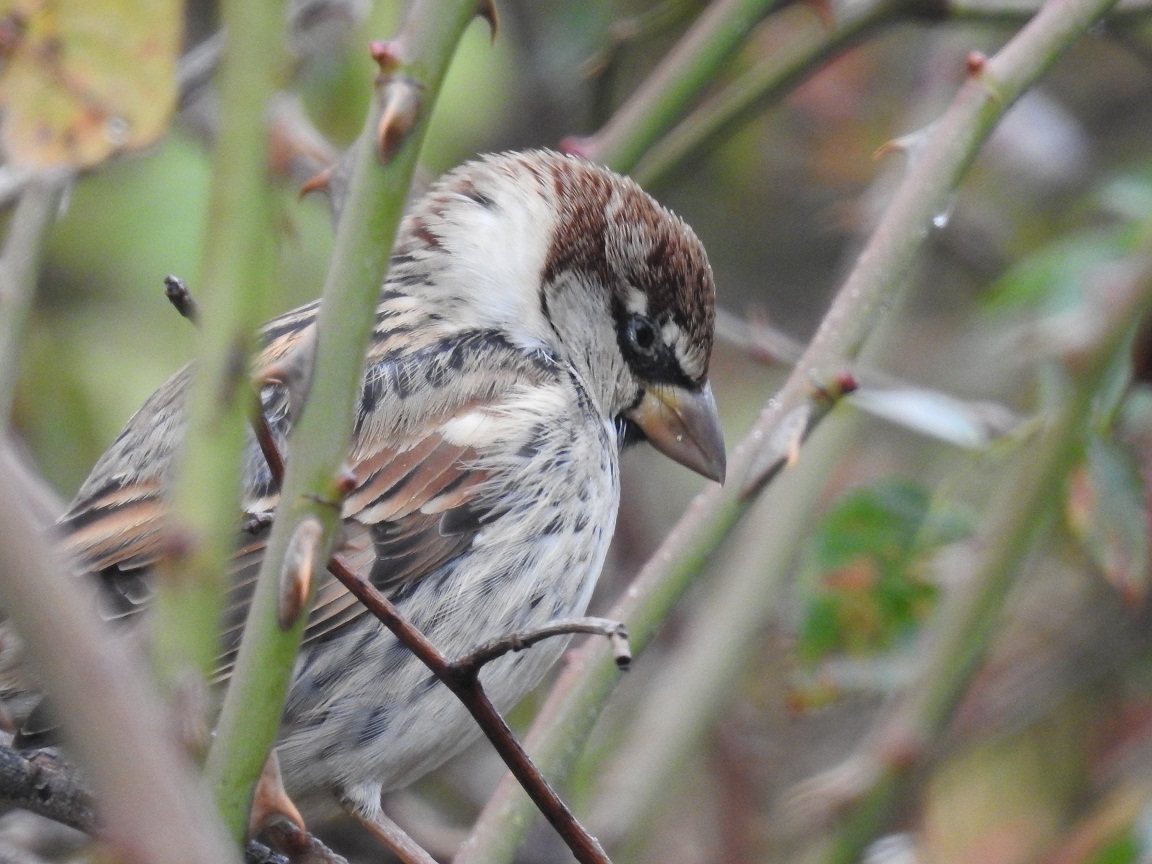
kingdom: Animalia
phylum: Chordata
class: Aves
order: Passeriformes
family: Passeridae
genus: Passer
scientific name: Passer hispaniolensis
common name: Spanish sparrow
